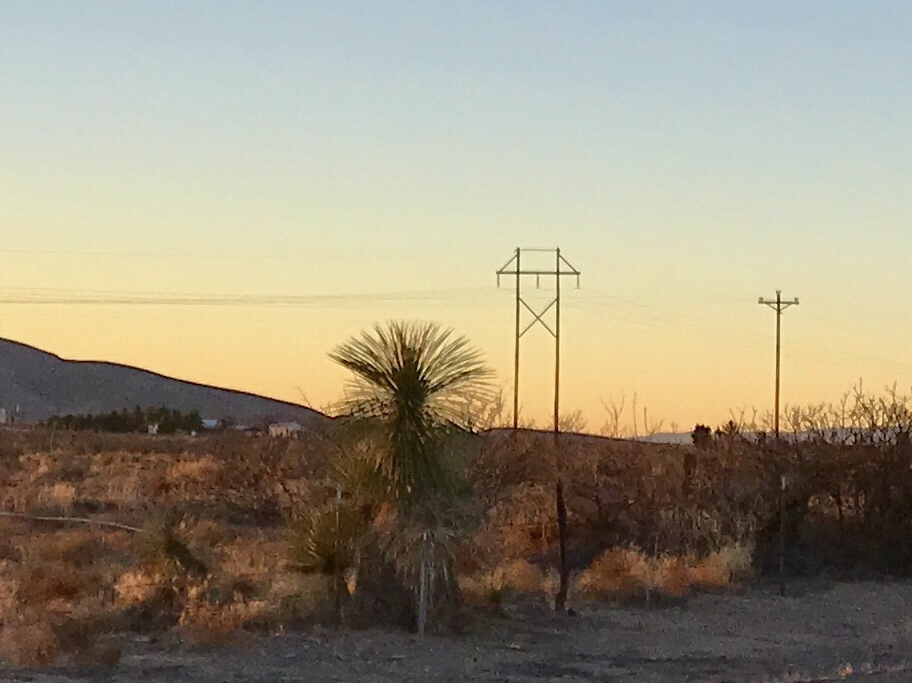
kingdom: Plantae
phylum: Tracheophyta
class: Liliopsida
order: Asparagales
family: Asparagaceae
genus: Yucca
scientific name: Yucca elata
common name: Palmella
